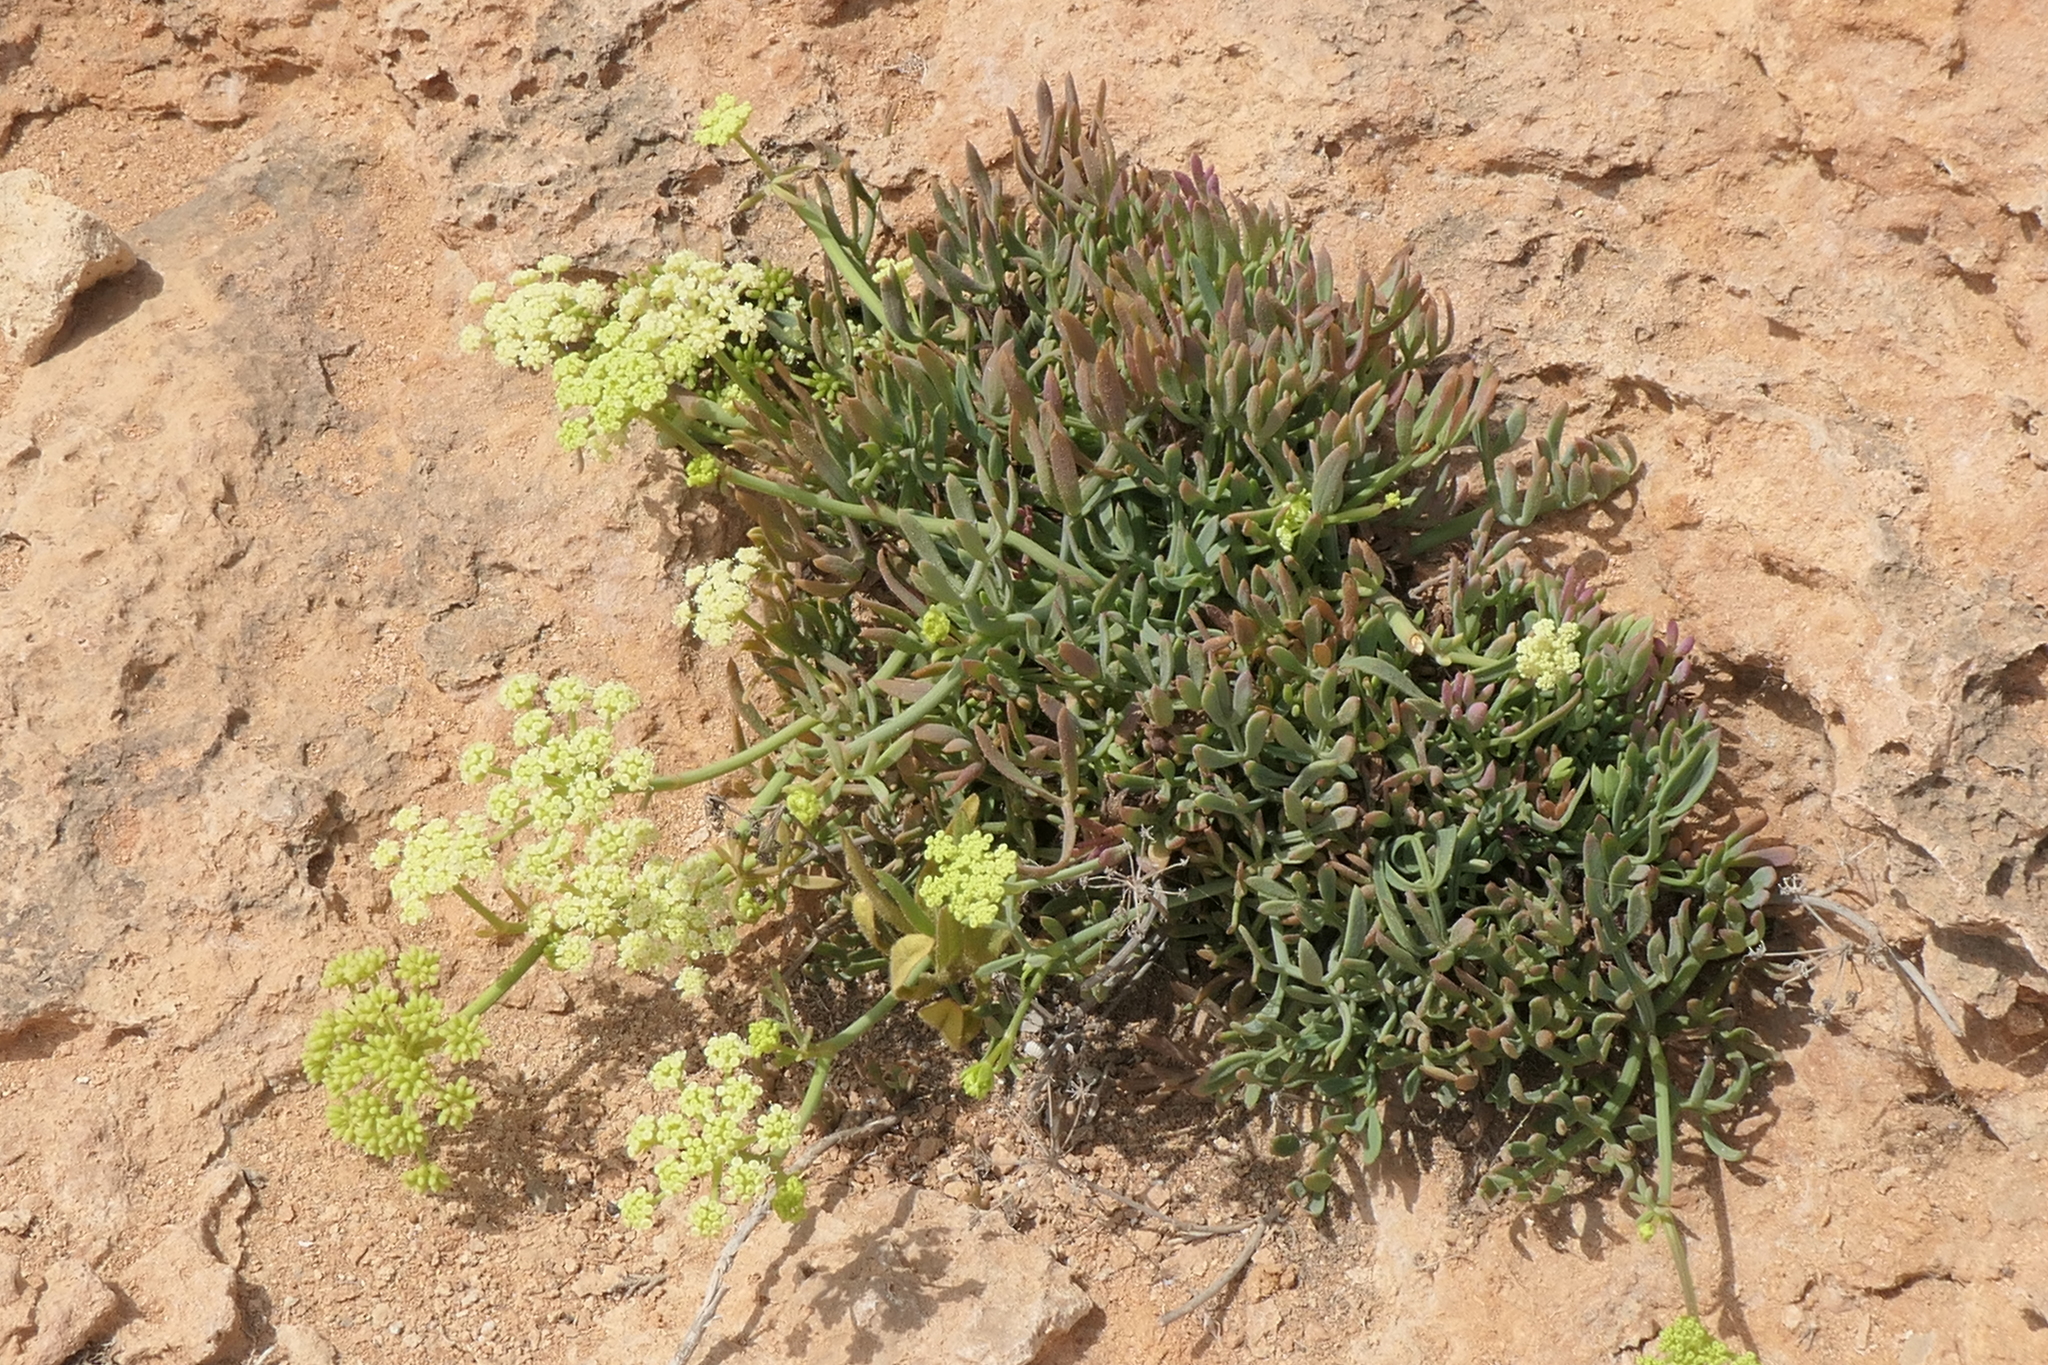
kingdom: Plantae
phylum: Tracheophyta
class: Magnoliopsida
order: Apiales
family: Apiaceae
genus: Crithmum
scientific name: Crithmum maritimum
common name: Rock samphire
